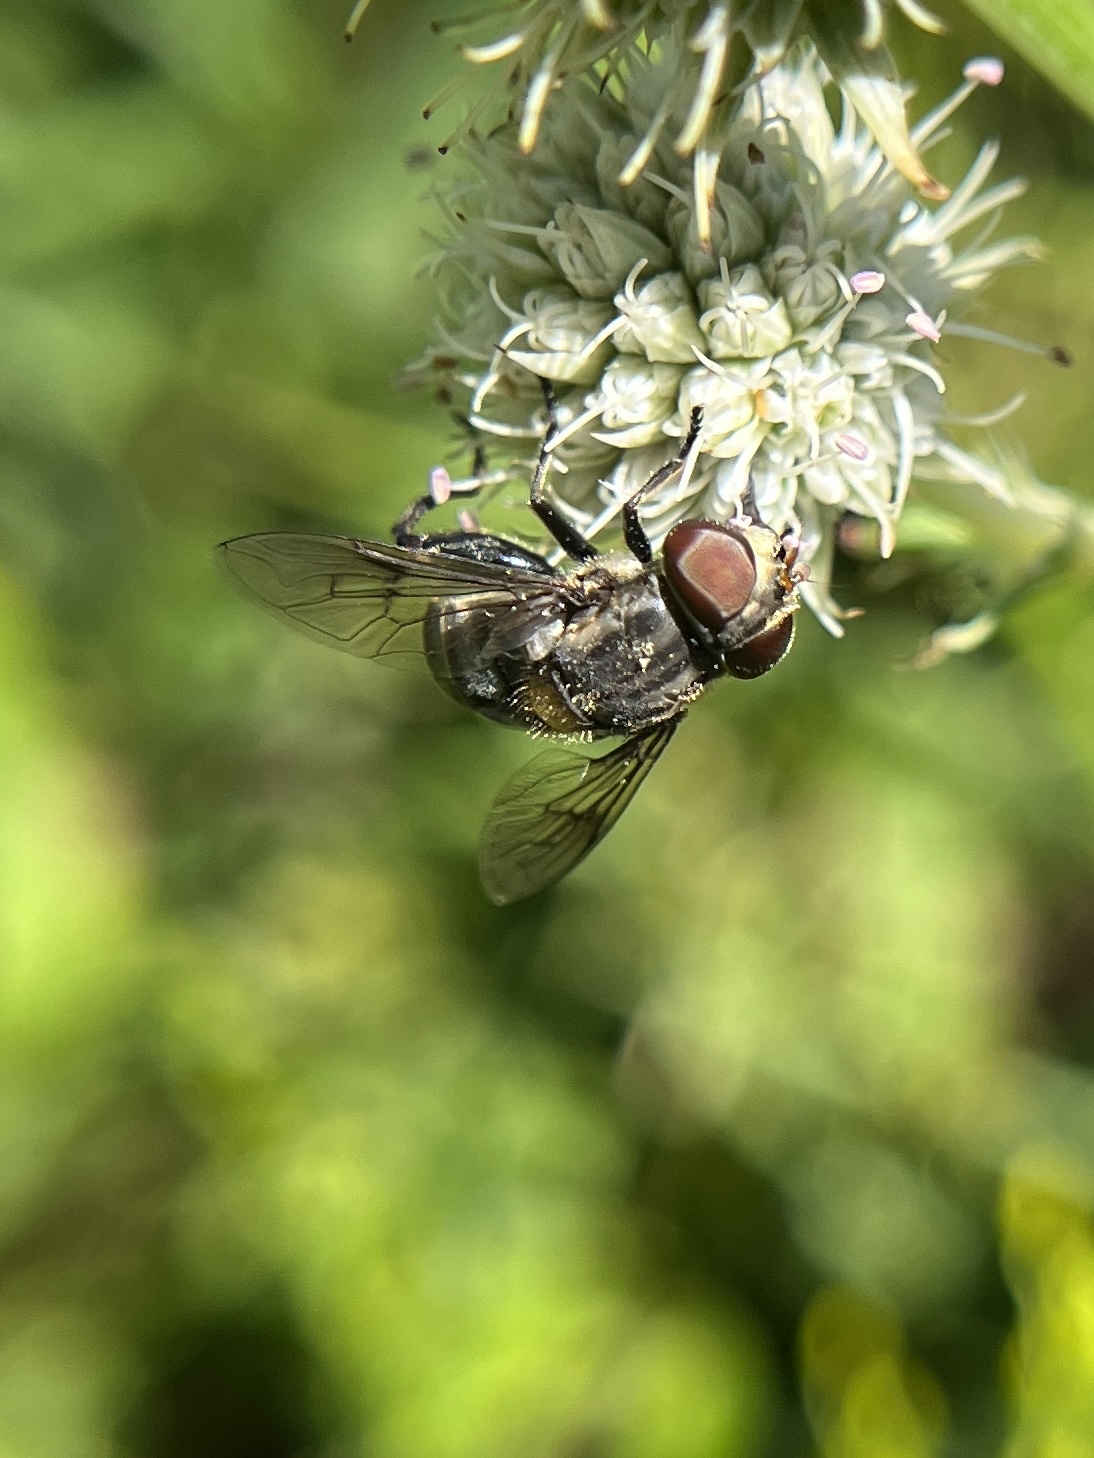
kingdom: Animalia
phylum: Arthropoda
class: Insecta
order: Diptera
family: Syrphidae
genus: Palpada
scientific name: Palpada furcata
